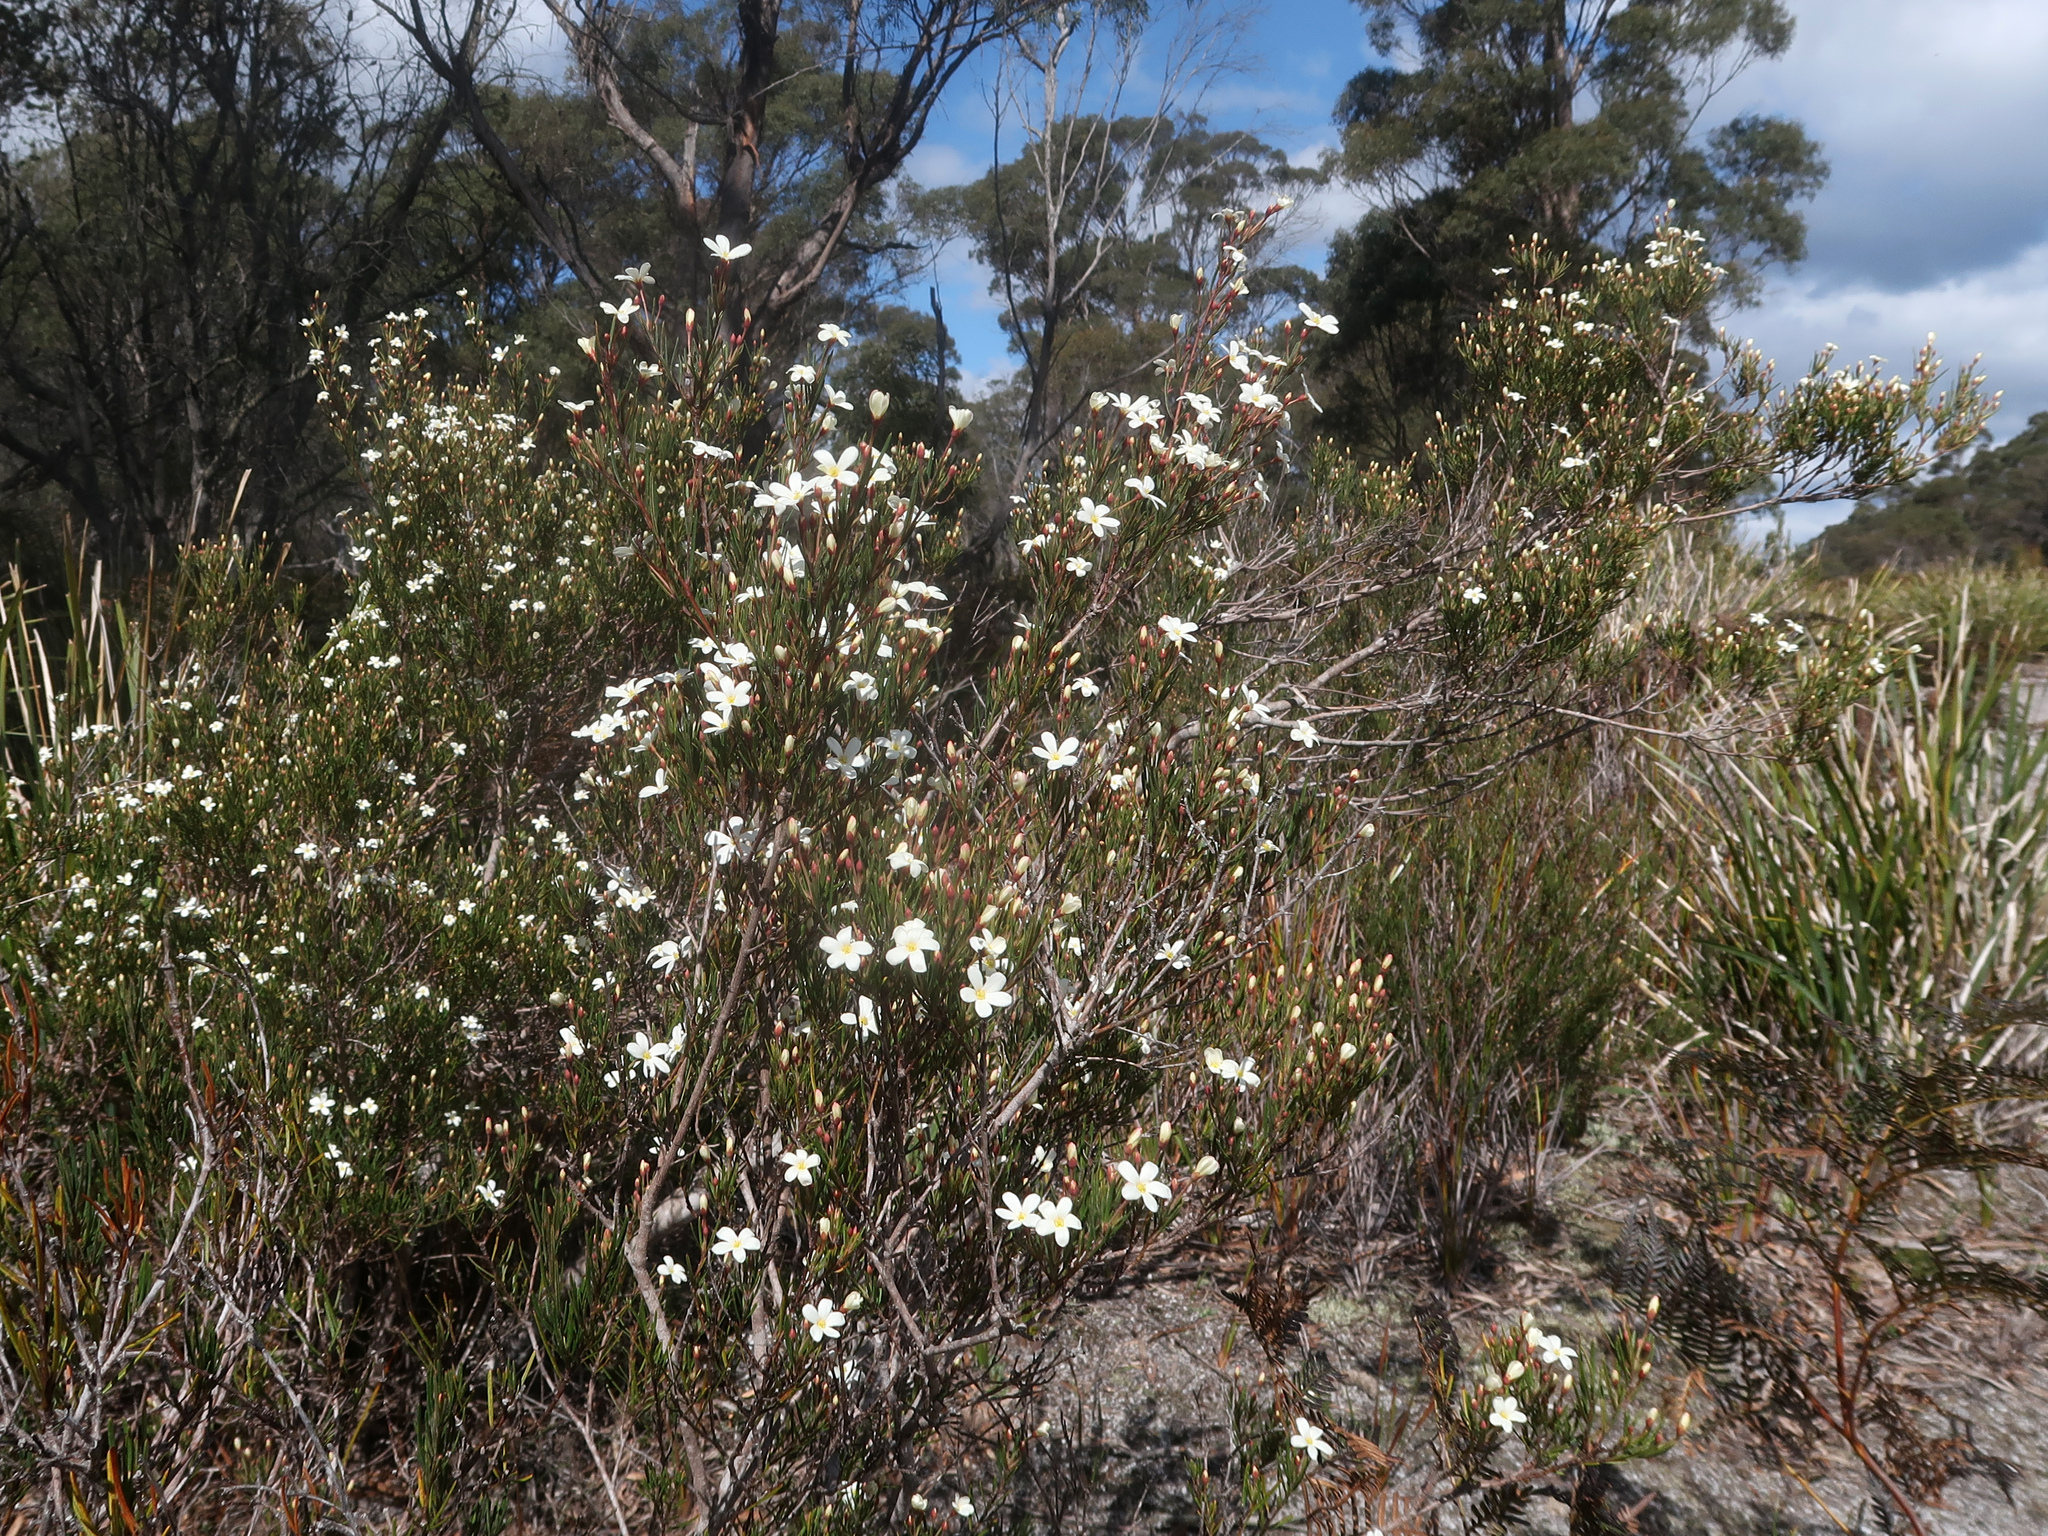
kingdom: Plantae
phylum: Tracheophyta
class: Magnoliopsida
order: Malpighiales
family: Euphorbiaceae
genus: Ricinocarpos
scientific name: Ricinocarpos pinifolius
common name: Weddingbush
